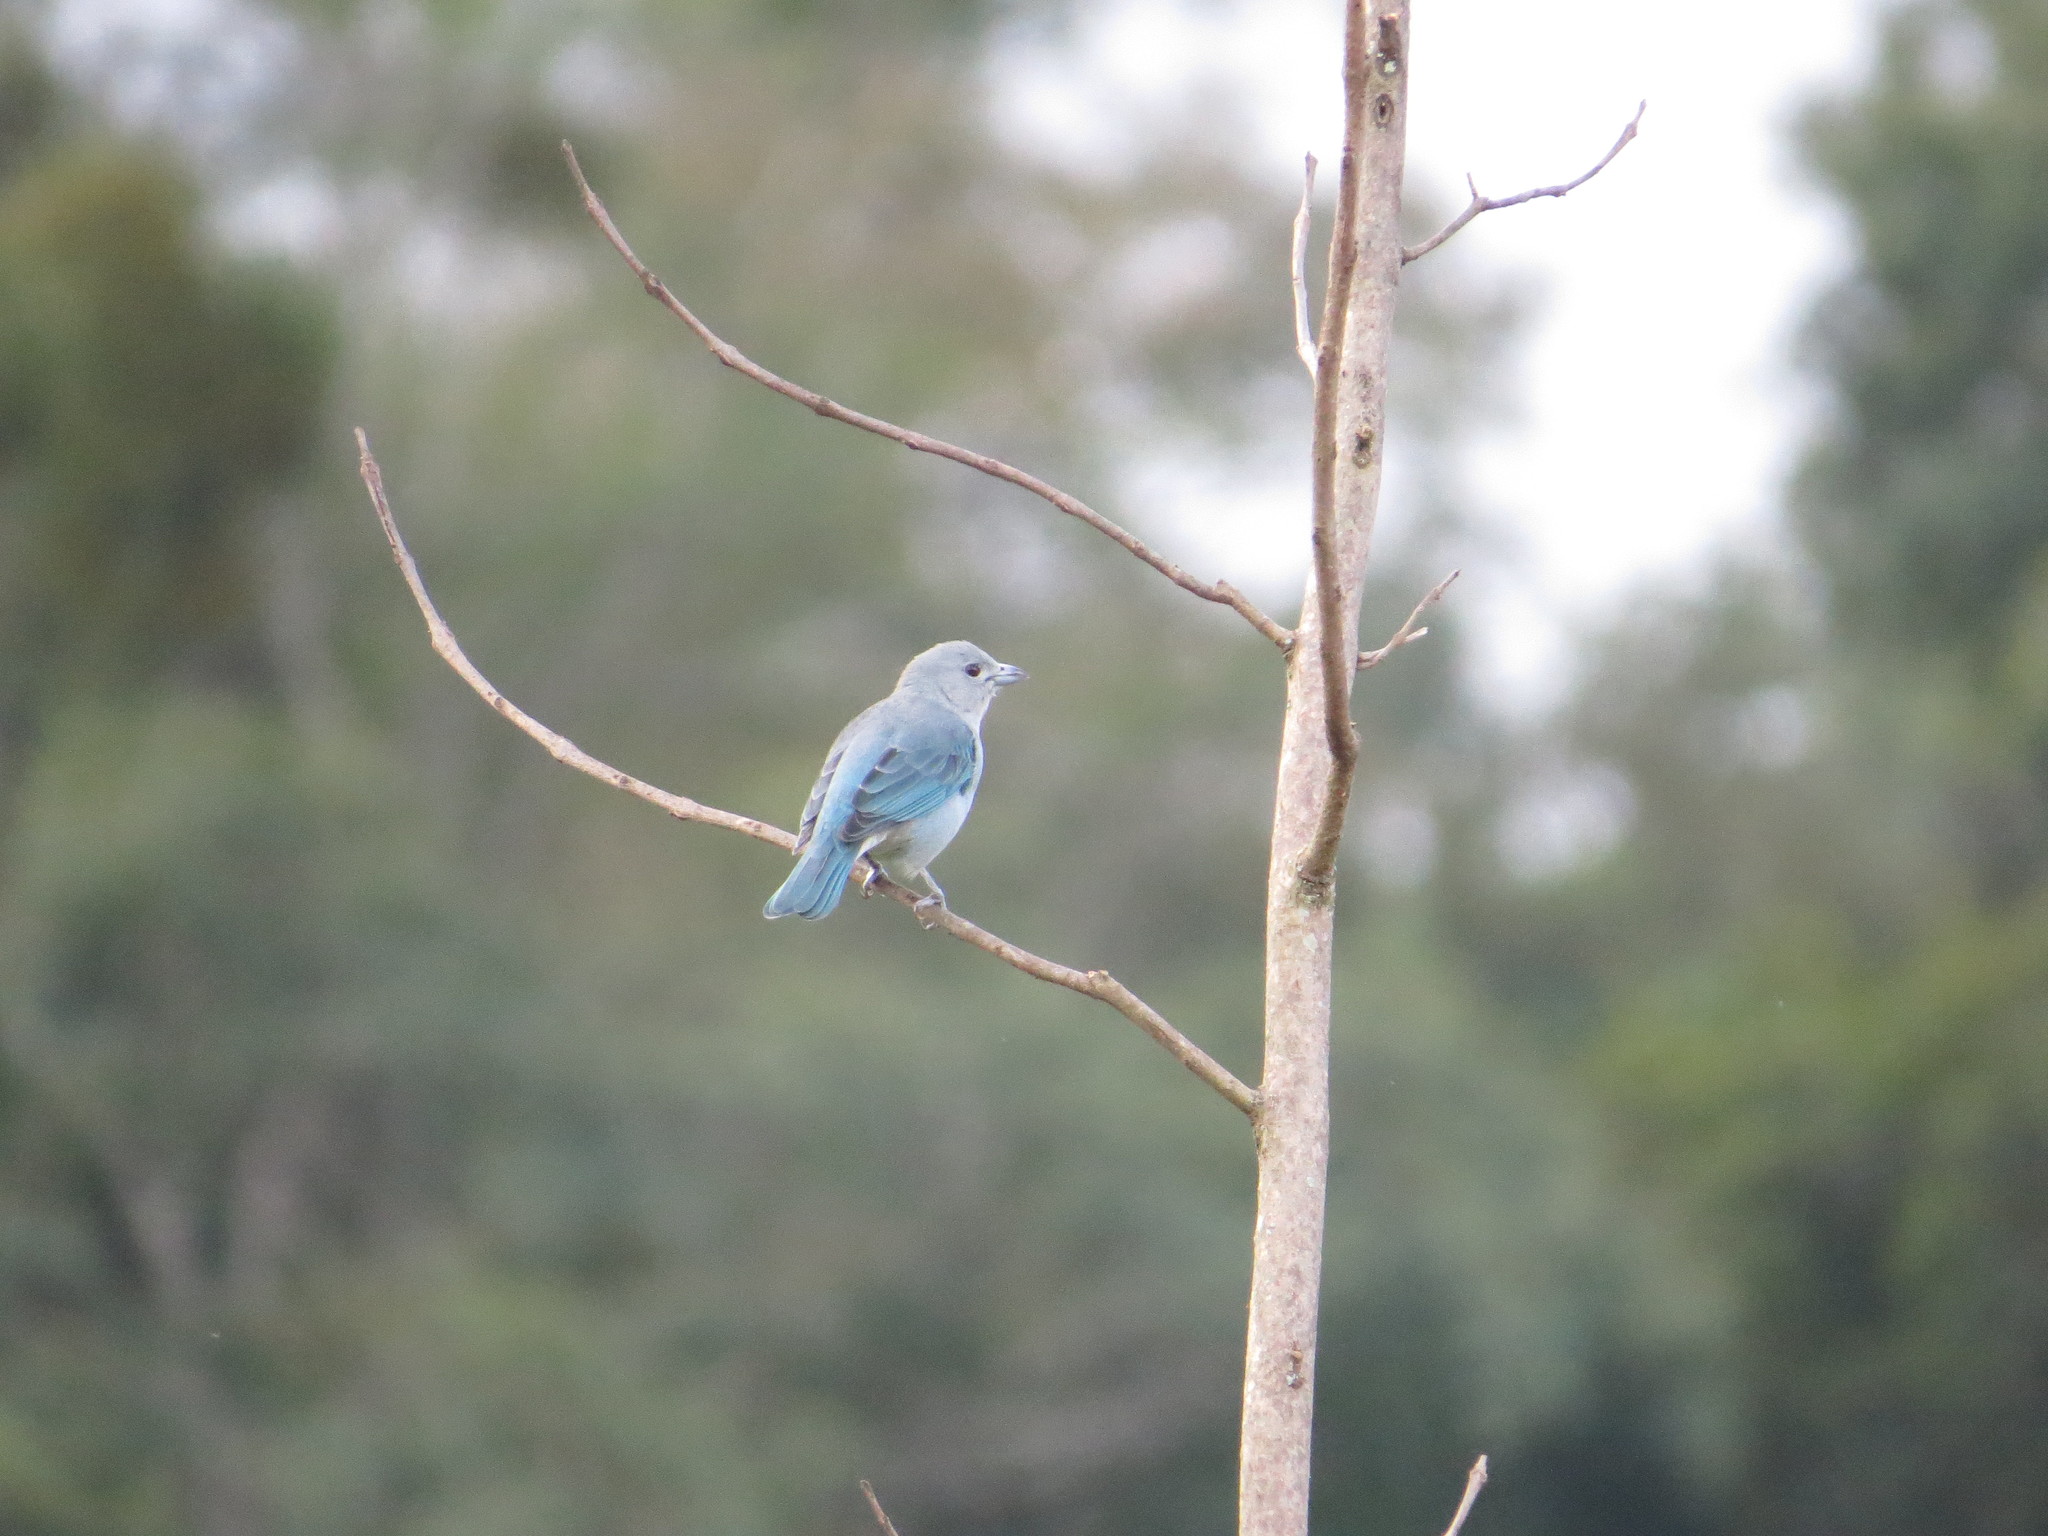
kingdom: Animalia
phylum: Chordata
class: Aves
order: Passeriformes
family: Thraupidae
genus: Thraupis
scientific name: Thraupis sayaca
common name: Sayaca tanager
